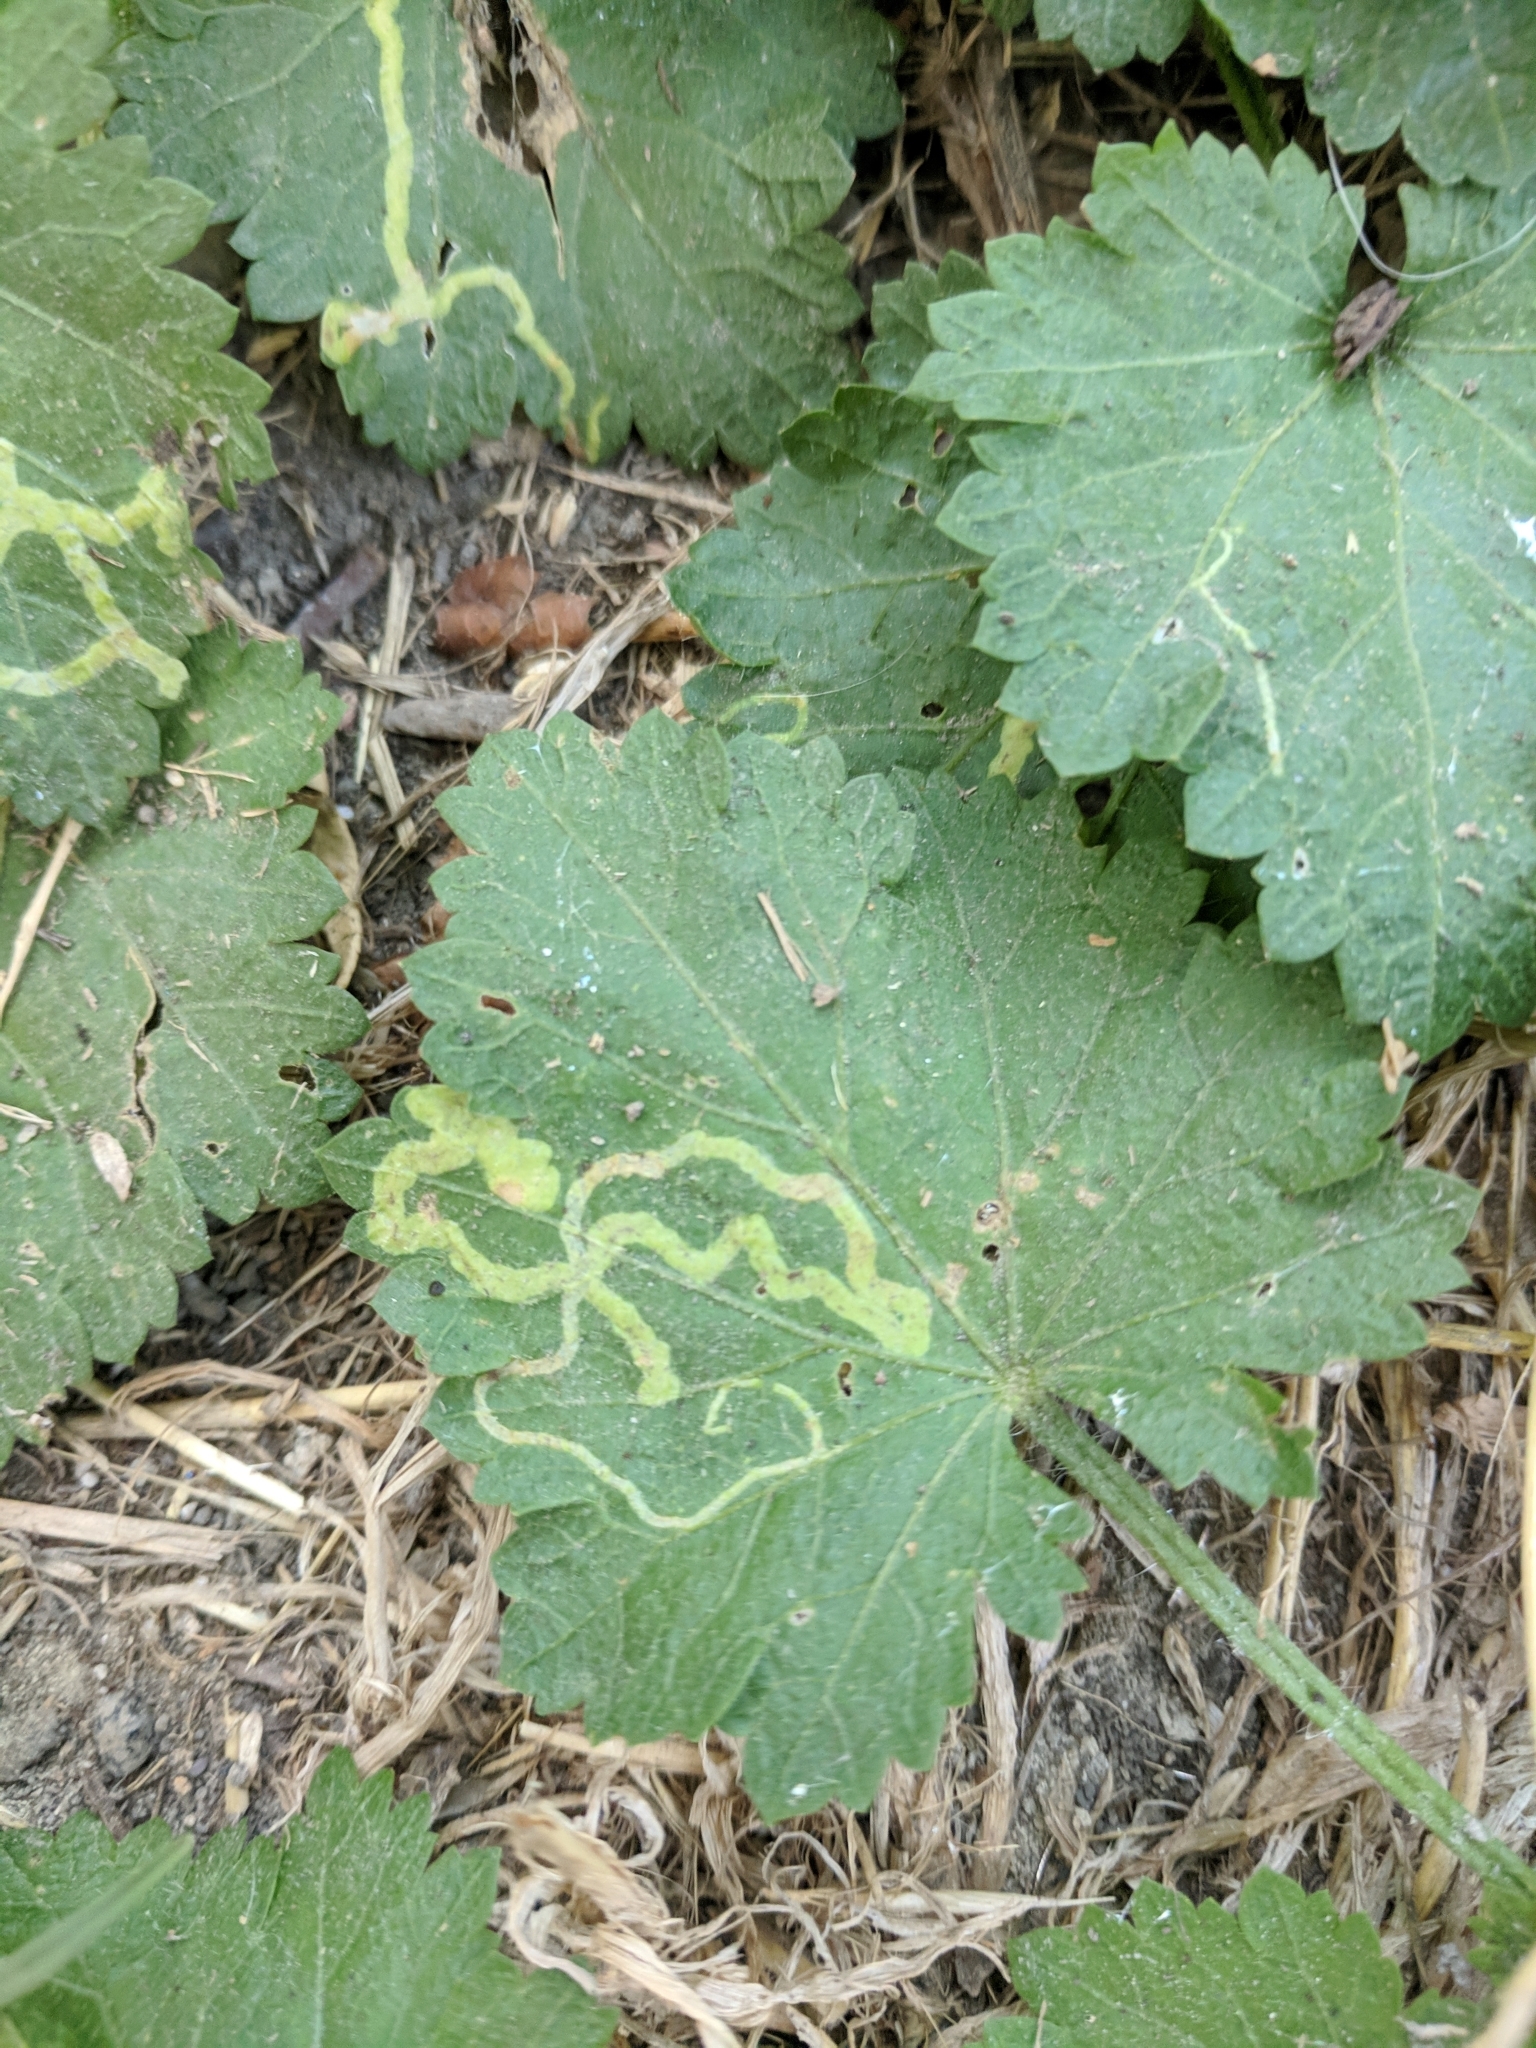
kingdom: Plantae
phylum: Tracheophyta
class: Magnoliopsida
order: Malvales
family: Malvaceae
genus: Modiola
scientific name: Modiola caroliniana
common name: Carolina bristlemallow
